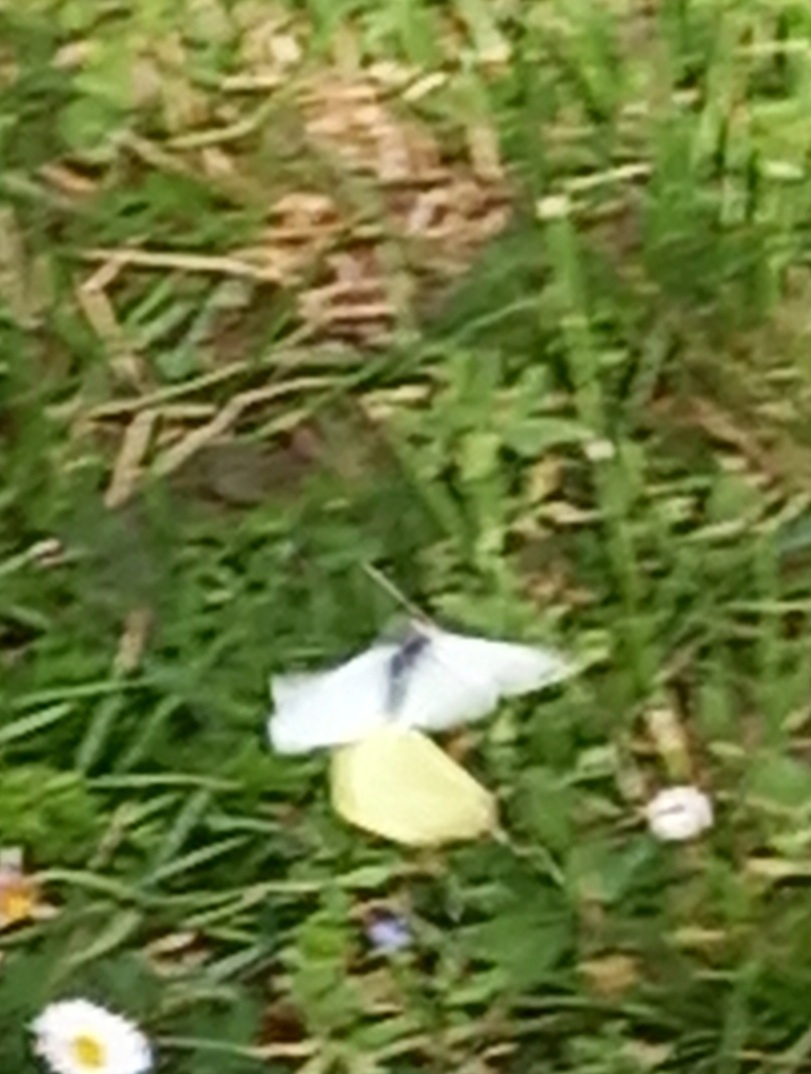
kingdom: Animalia
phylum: Arthropoda
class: Insecta
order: Lepidoptera
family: Pieridae
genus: Pieris
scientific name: Pieris rapae
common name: Small white
